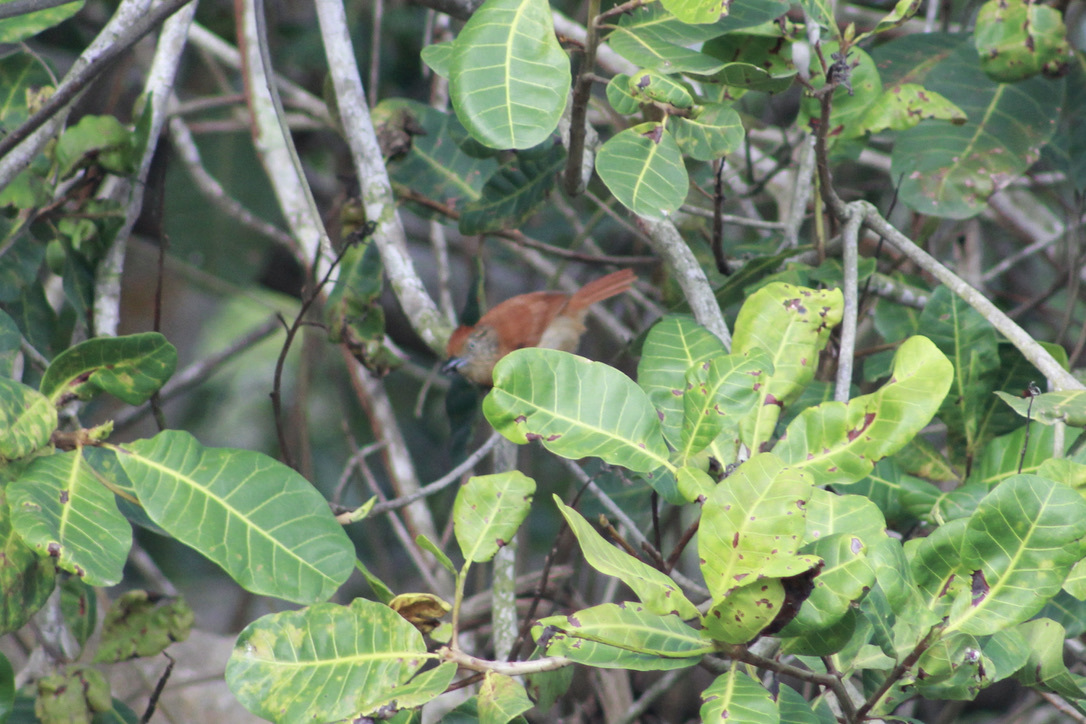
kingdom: Animalia
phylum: Chordata
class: Aves
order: Passeriformes
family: Thamnophilidae
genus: Thamnophilus
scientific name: Thamnophilus doliatus
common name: Barred antshrike
